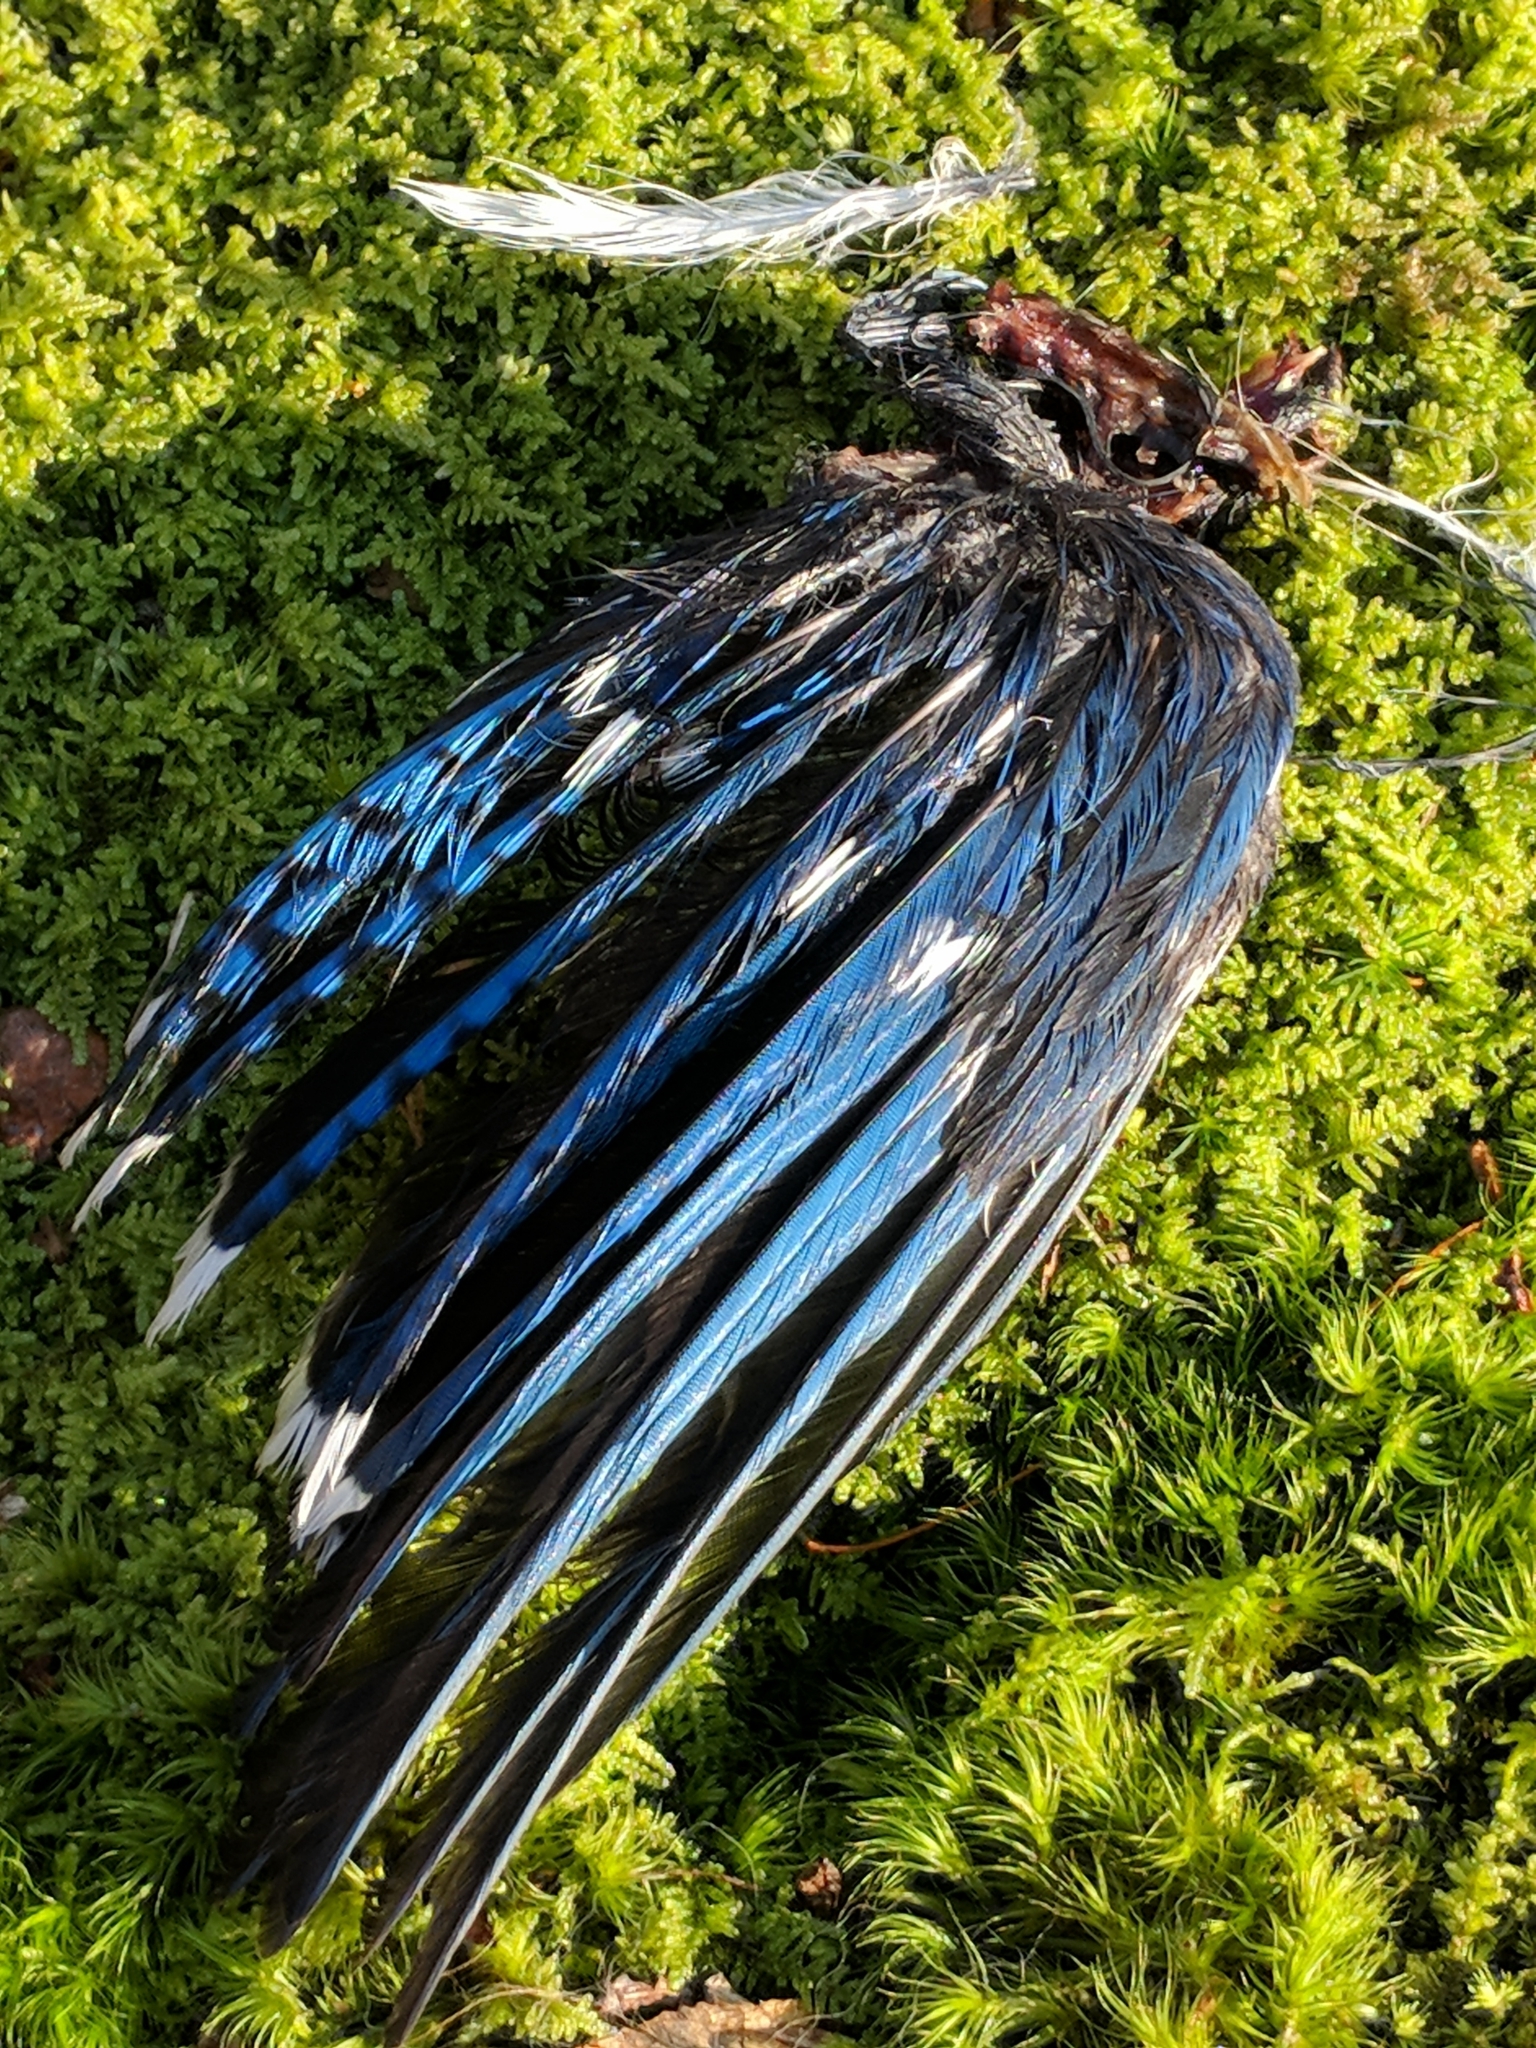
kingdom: Animalia
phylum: Chordata
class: Aves
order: Passeriformes
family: Corvidae
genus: Cyanocitta
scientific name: Cyanocitta cristata
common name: Blue jay
